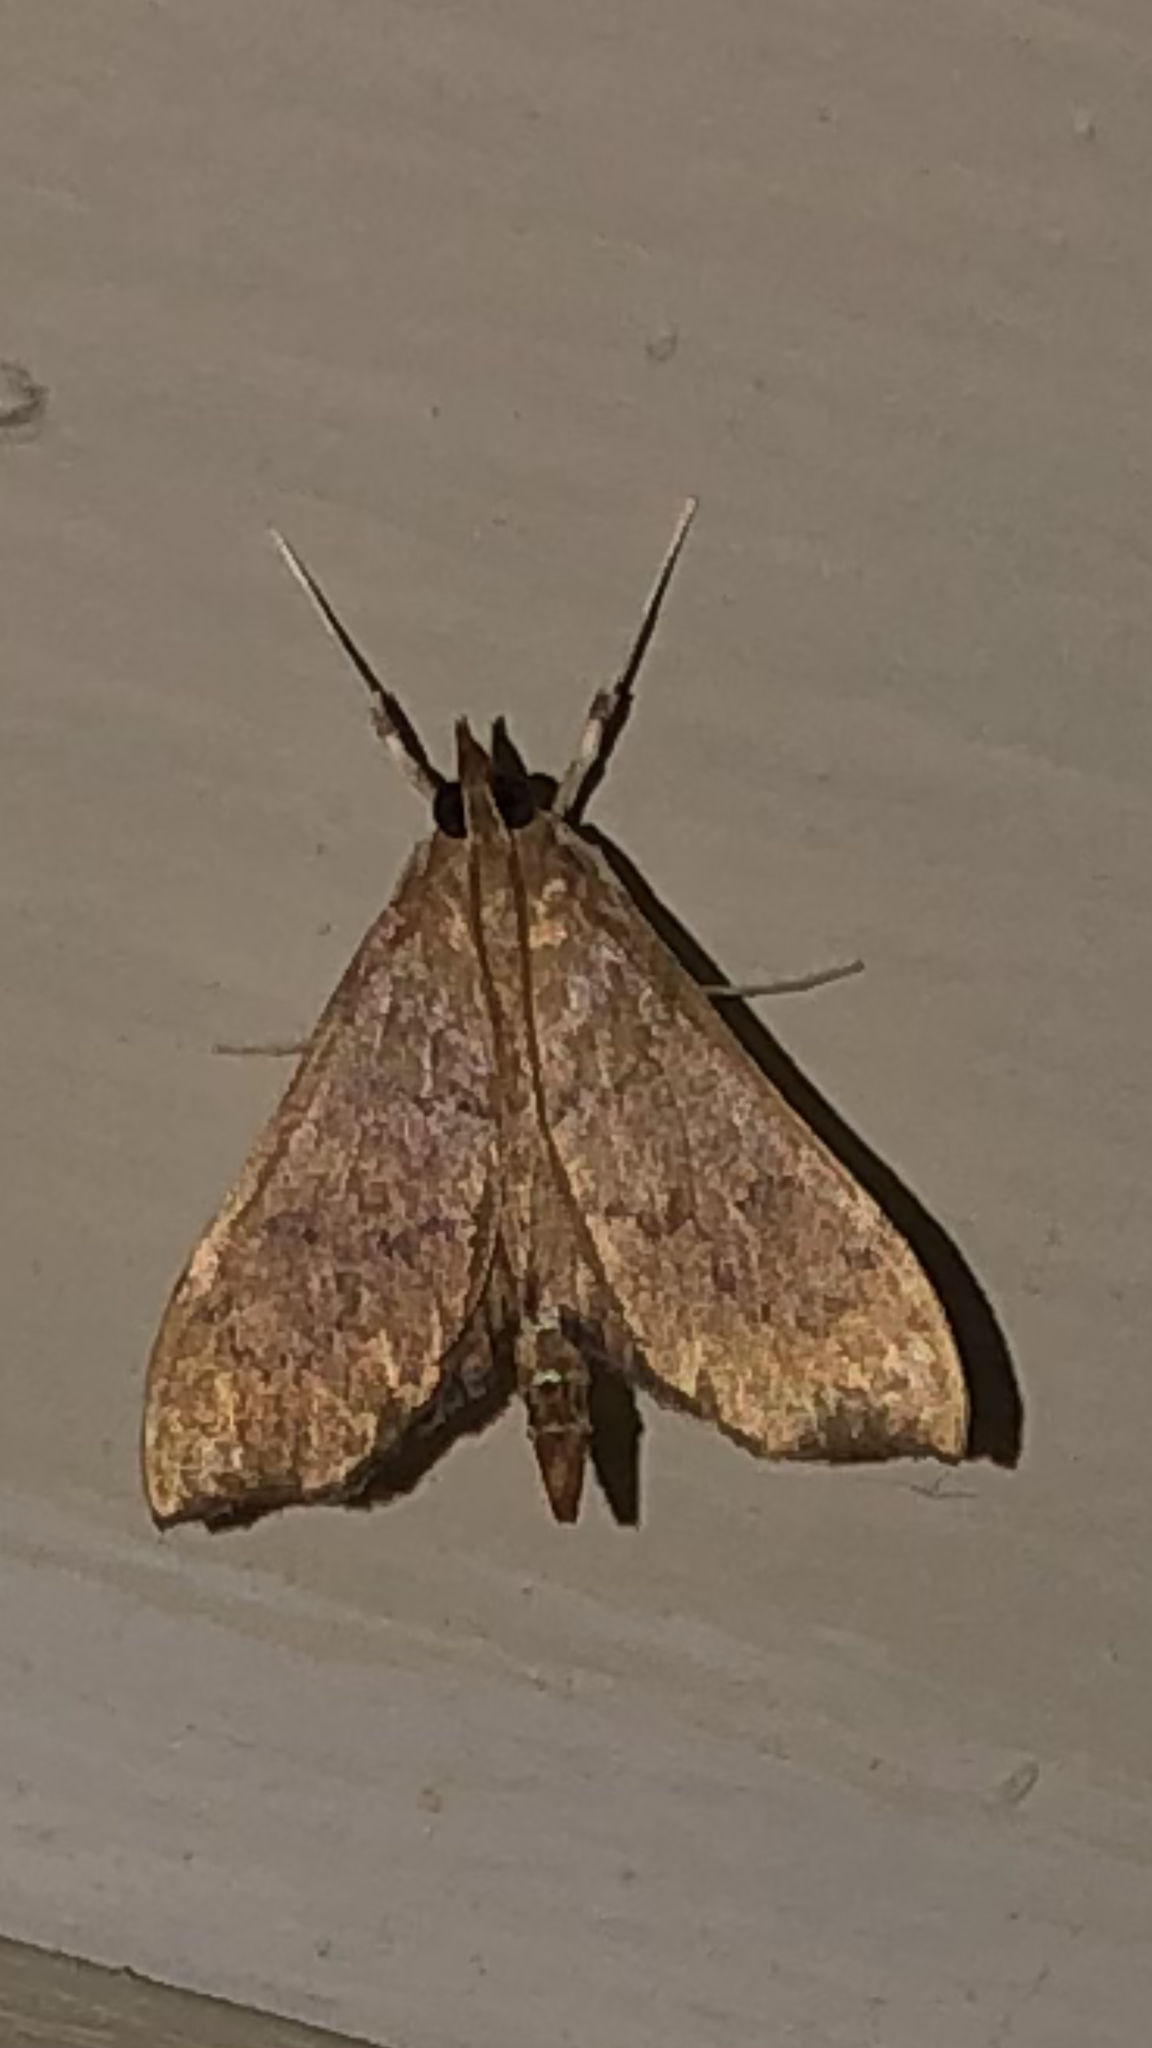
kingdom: Animalia
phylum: Arthropoda
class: Insecta
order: Lepidoptera
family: Crambidae
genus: Sericoplaga
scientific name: Sericoplaga externalis
